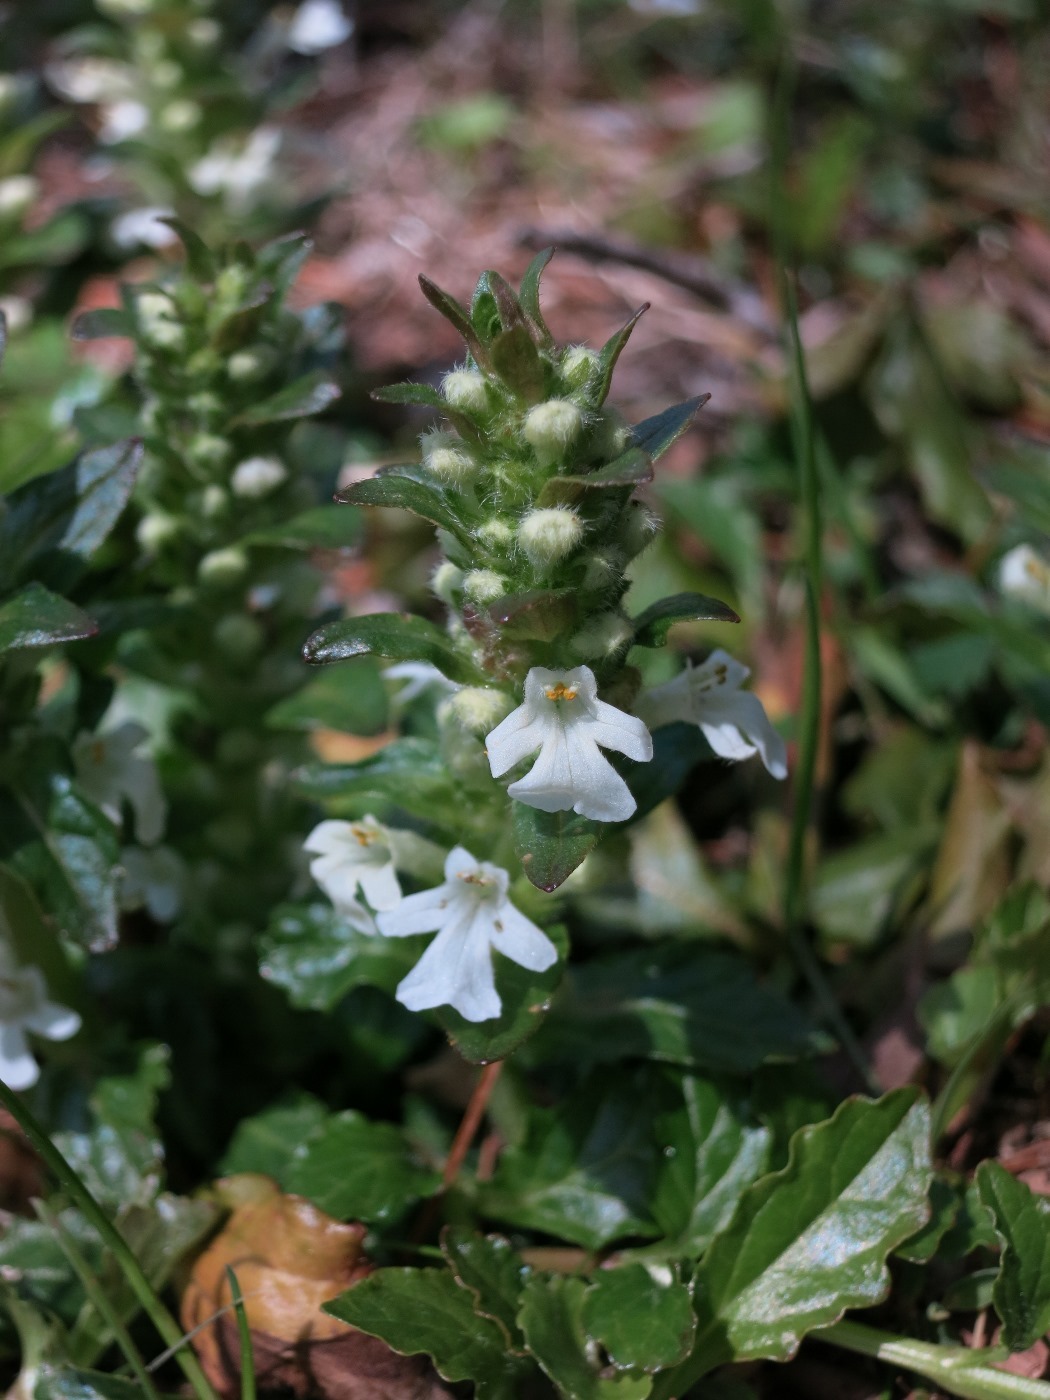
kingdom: Plantae
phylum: Tracheophyta
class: Magnoliopsida
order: Lamiales
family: Lamiaceae
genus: Ajuga
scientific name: Ajuga reptans
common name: Bugle
